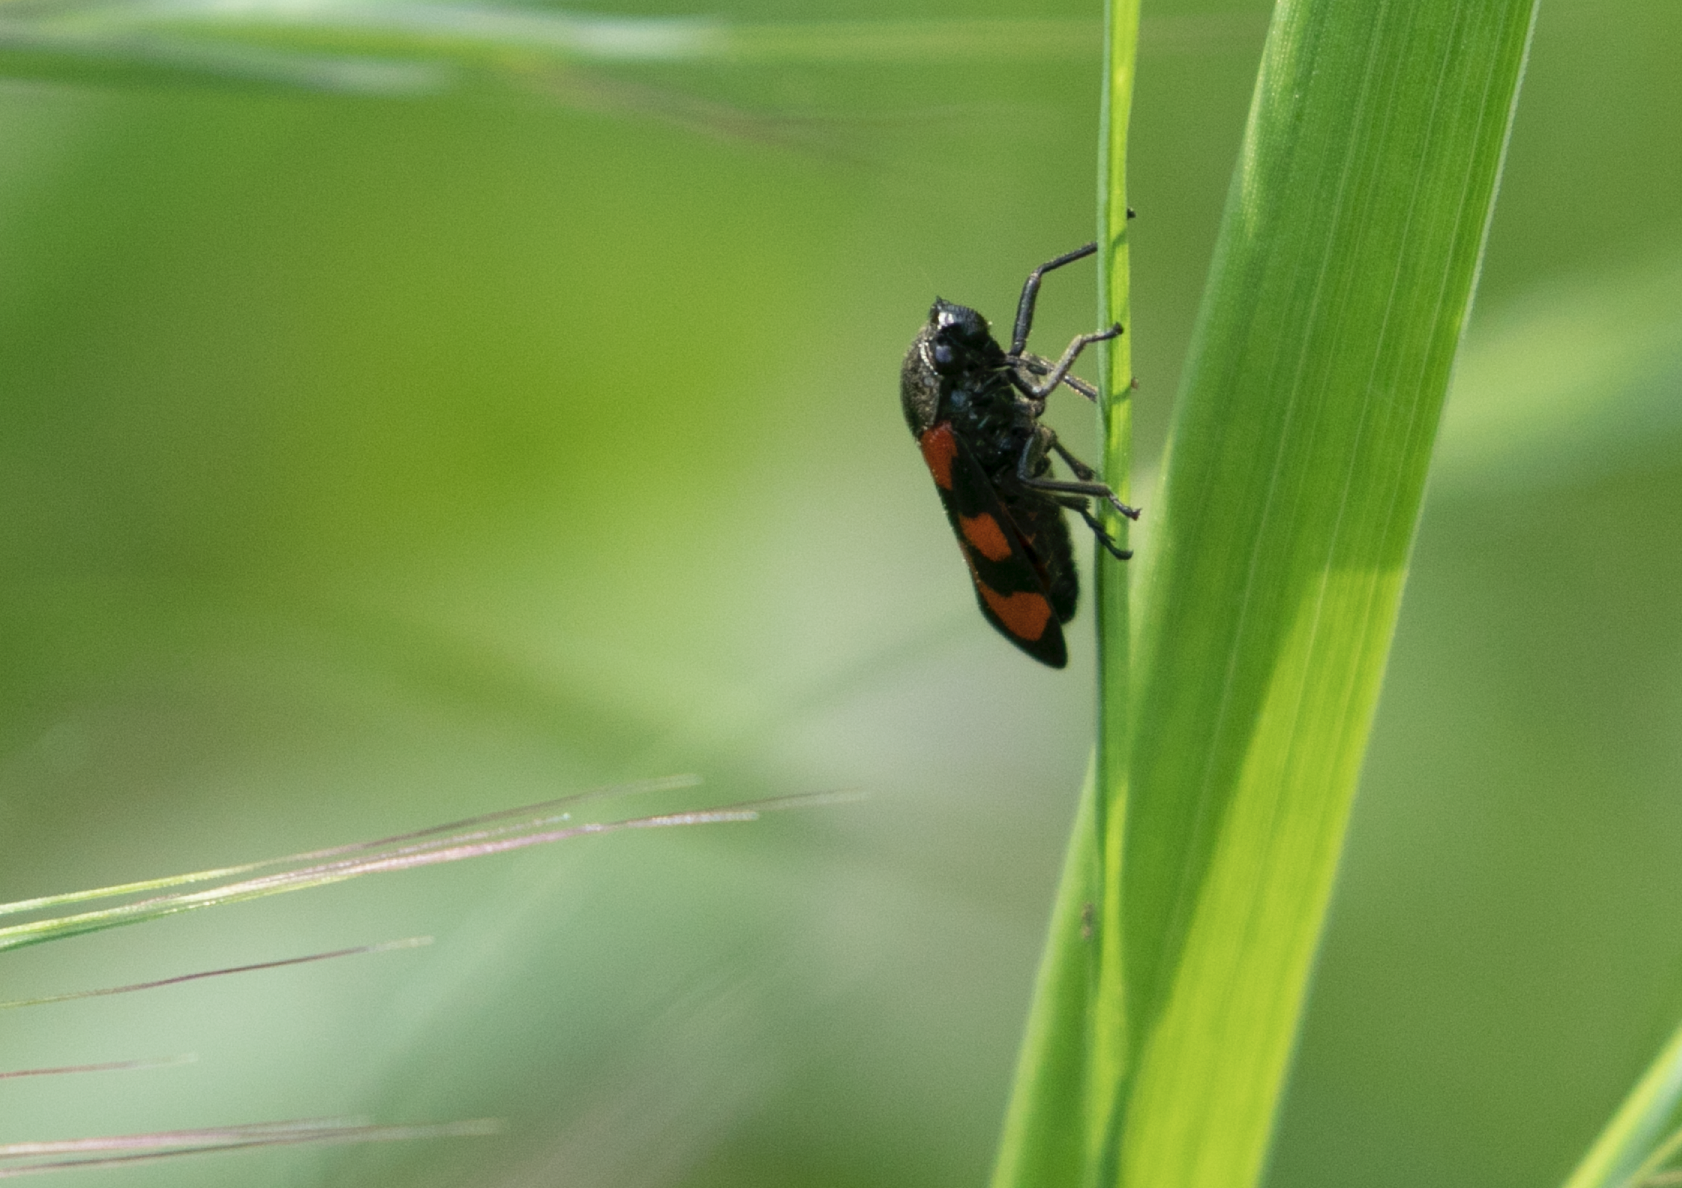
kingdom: Animalia
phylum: Arthropoda
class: Insecta
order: Hemiptera
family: Cercopidae
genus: Cercopis
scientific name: Cercopis vulnerata
